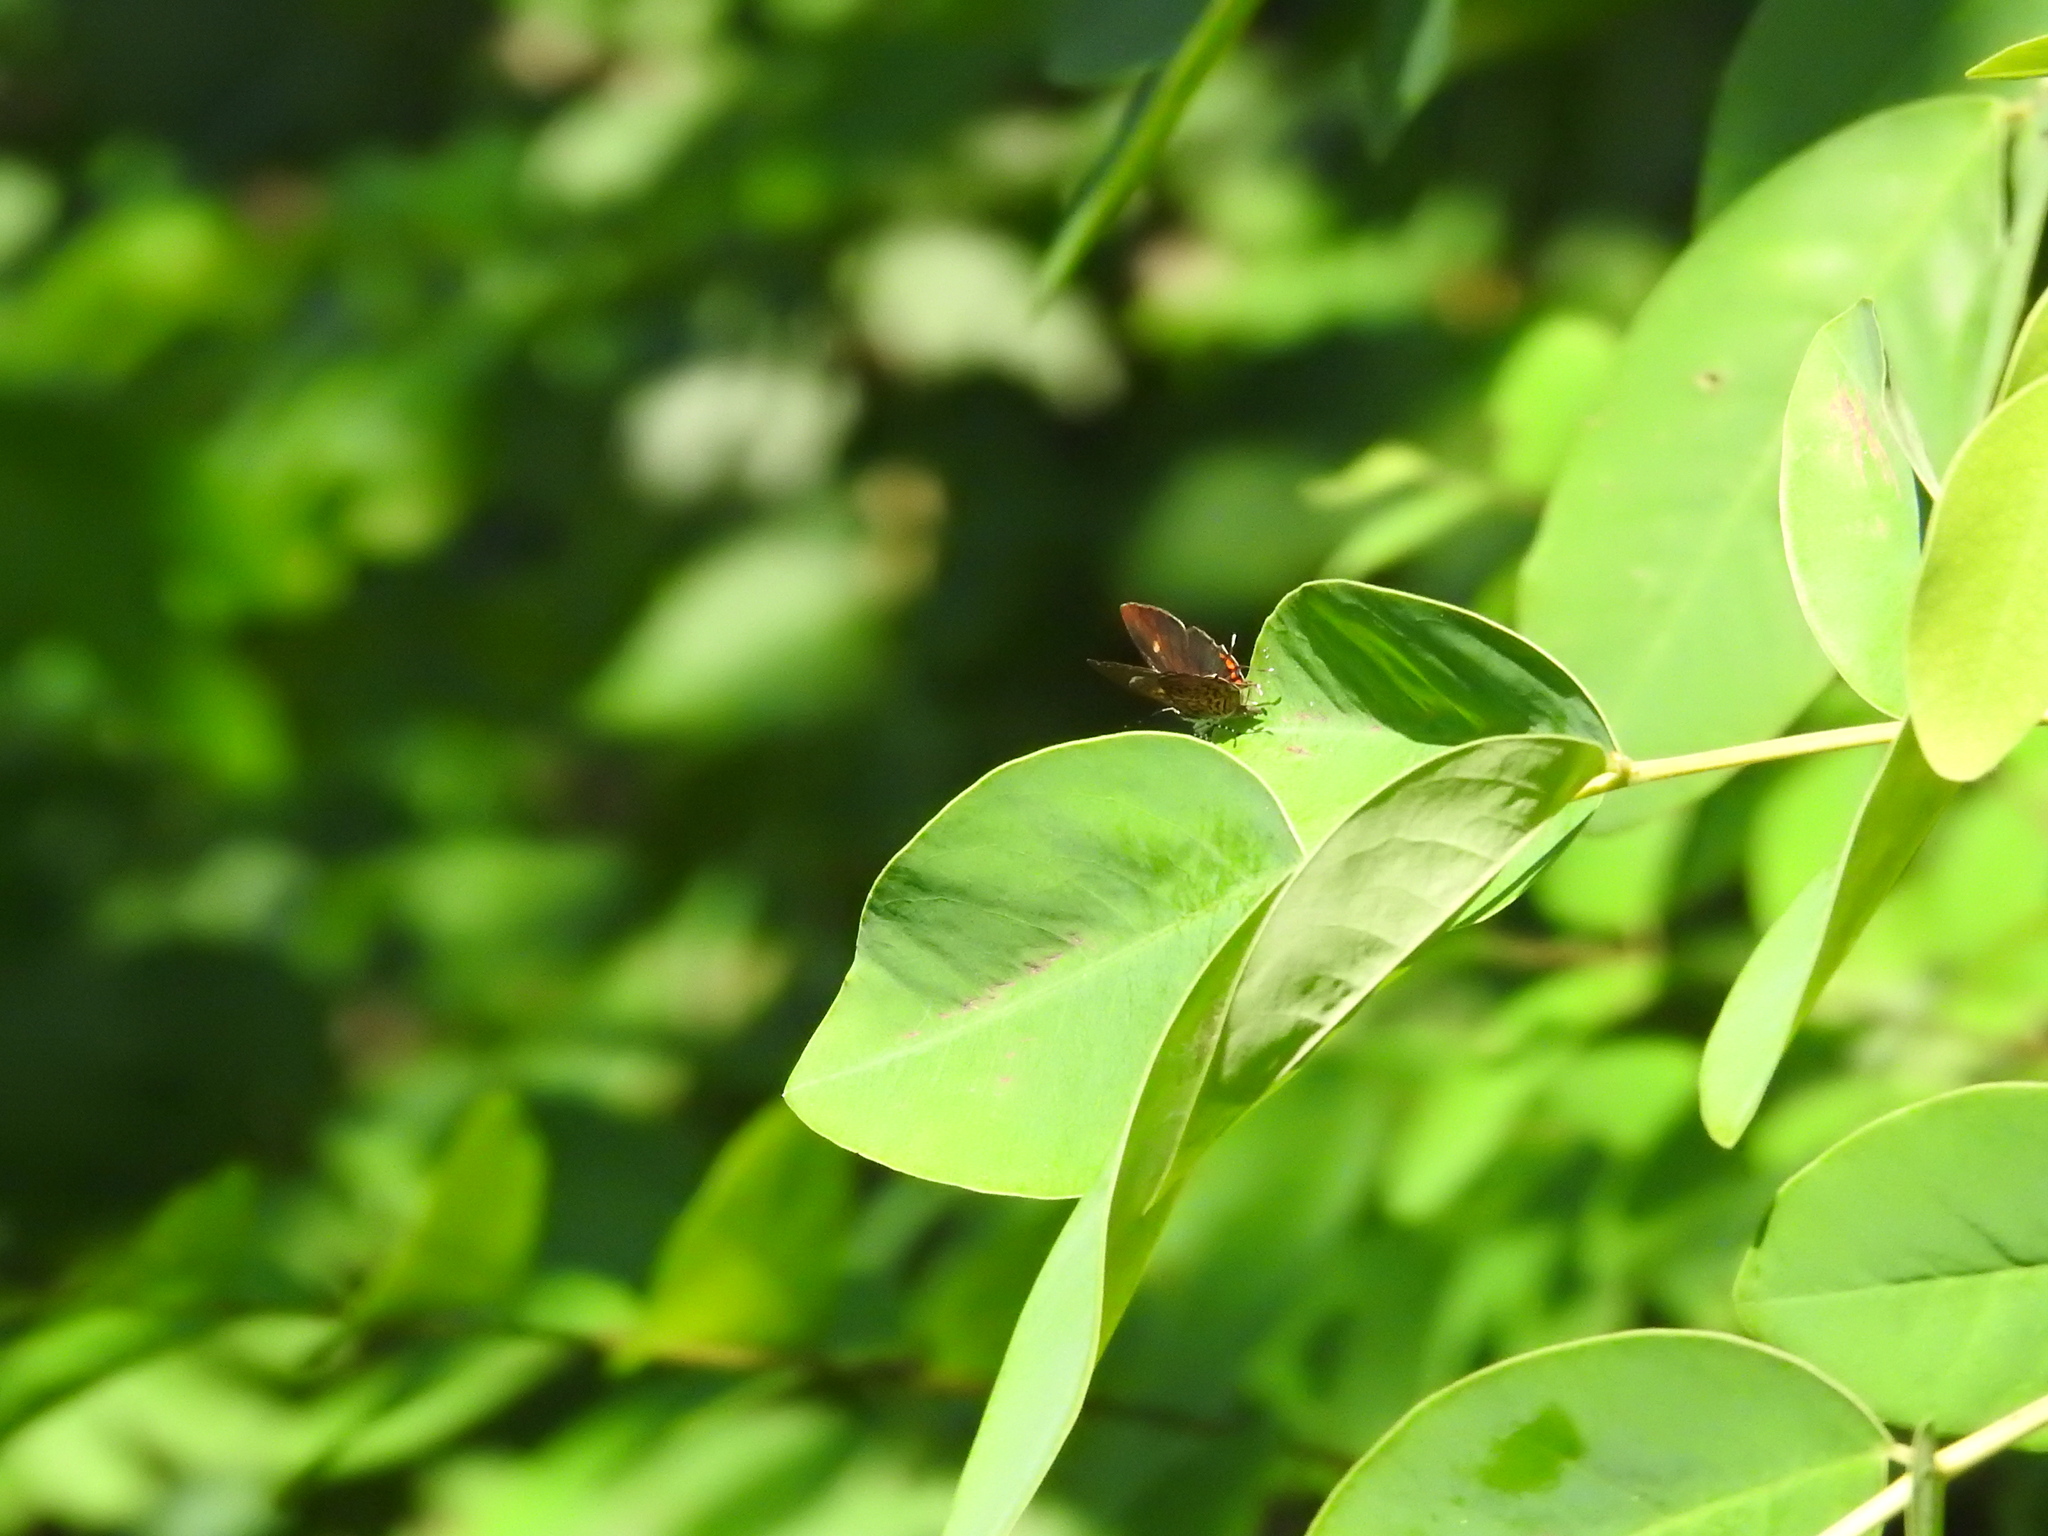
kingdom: Animalia
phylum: Arthropoda
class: Insecta
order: Lepidoptera
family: Lycaenidae
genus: Rathinda
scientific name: Rathinda amor
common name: Monkey puzzle
